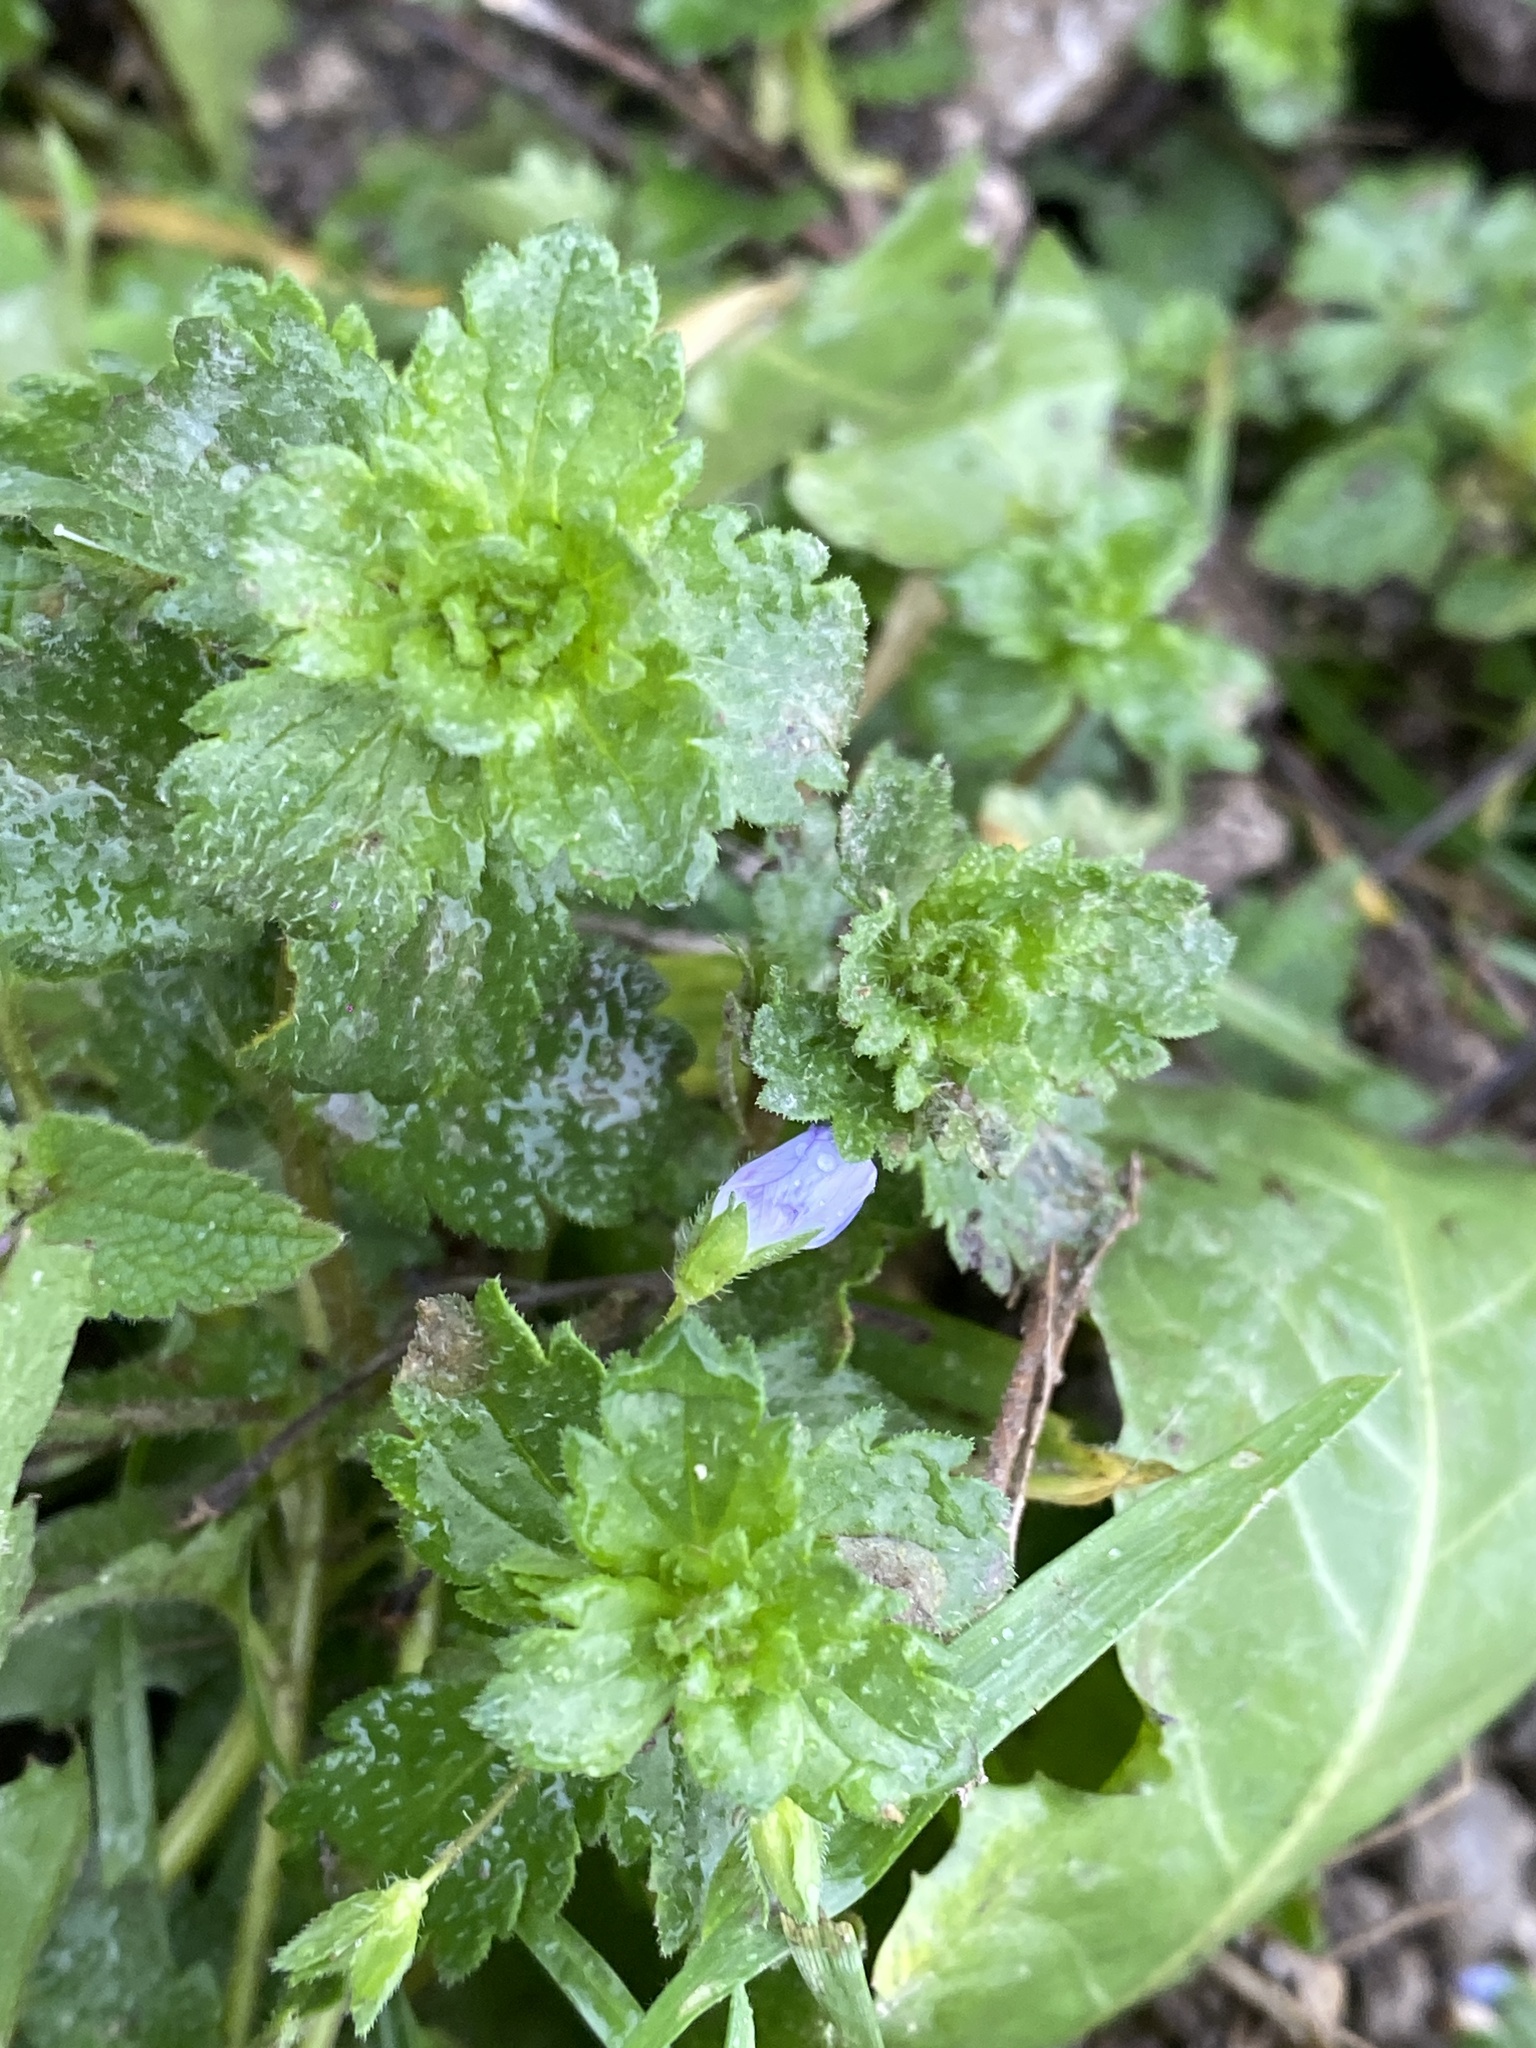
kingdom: Plantae
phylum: Tracheophyta
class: Magnoliopsida
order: Lamiales
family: Plantaginaceae
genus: Veronica
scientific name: Veronica persica
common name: Common field-speedwell
